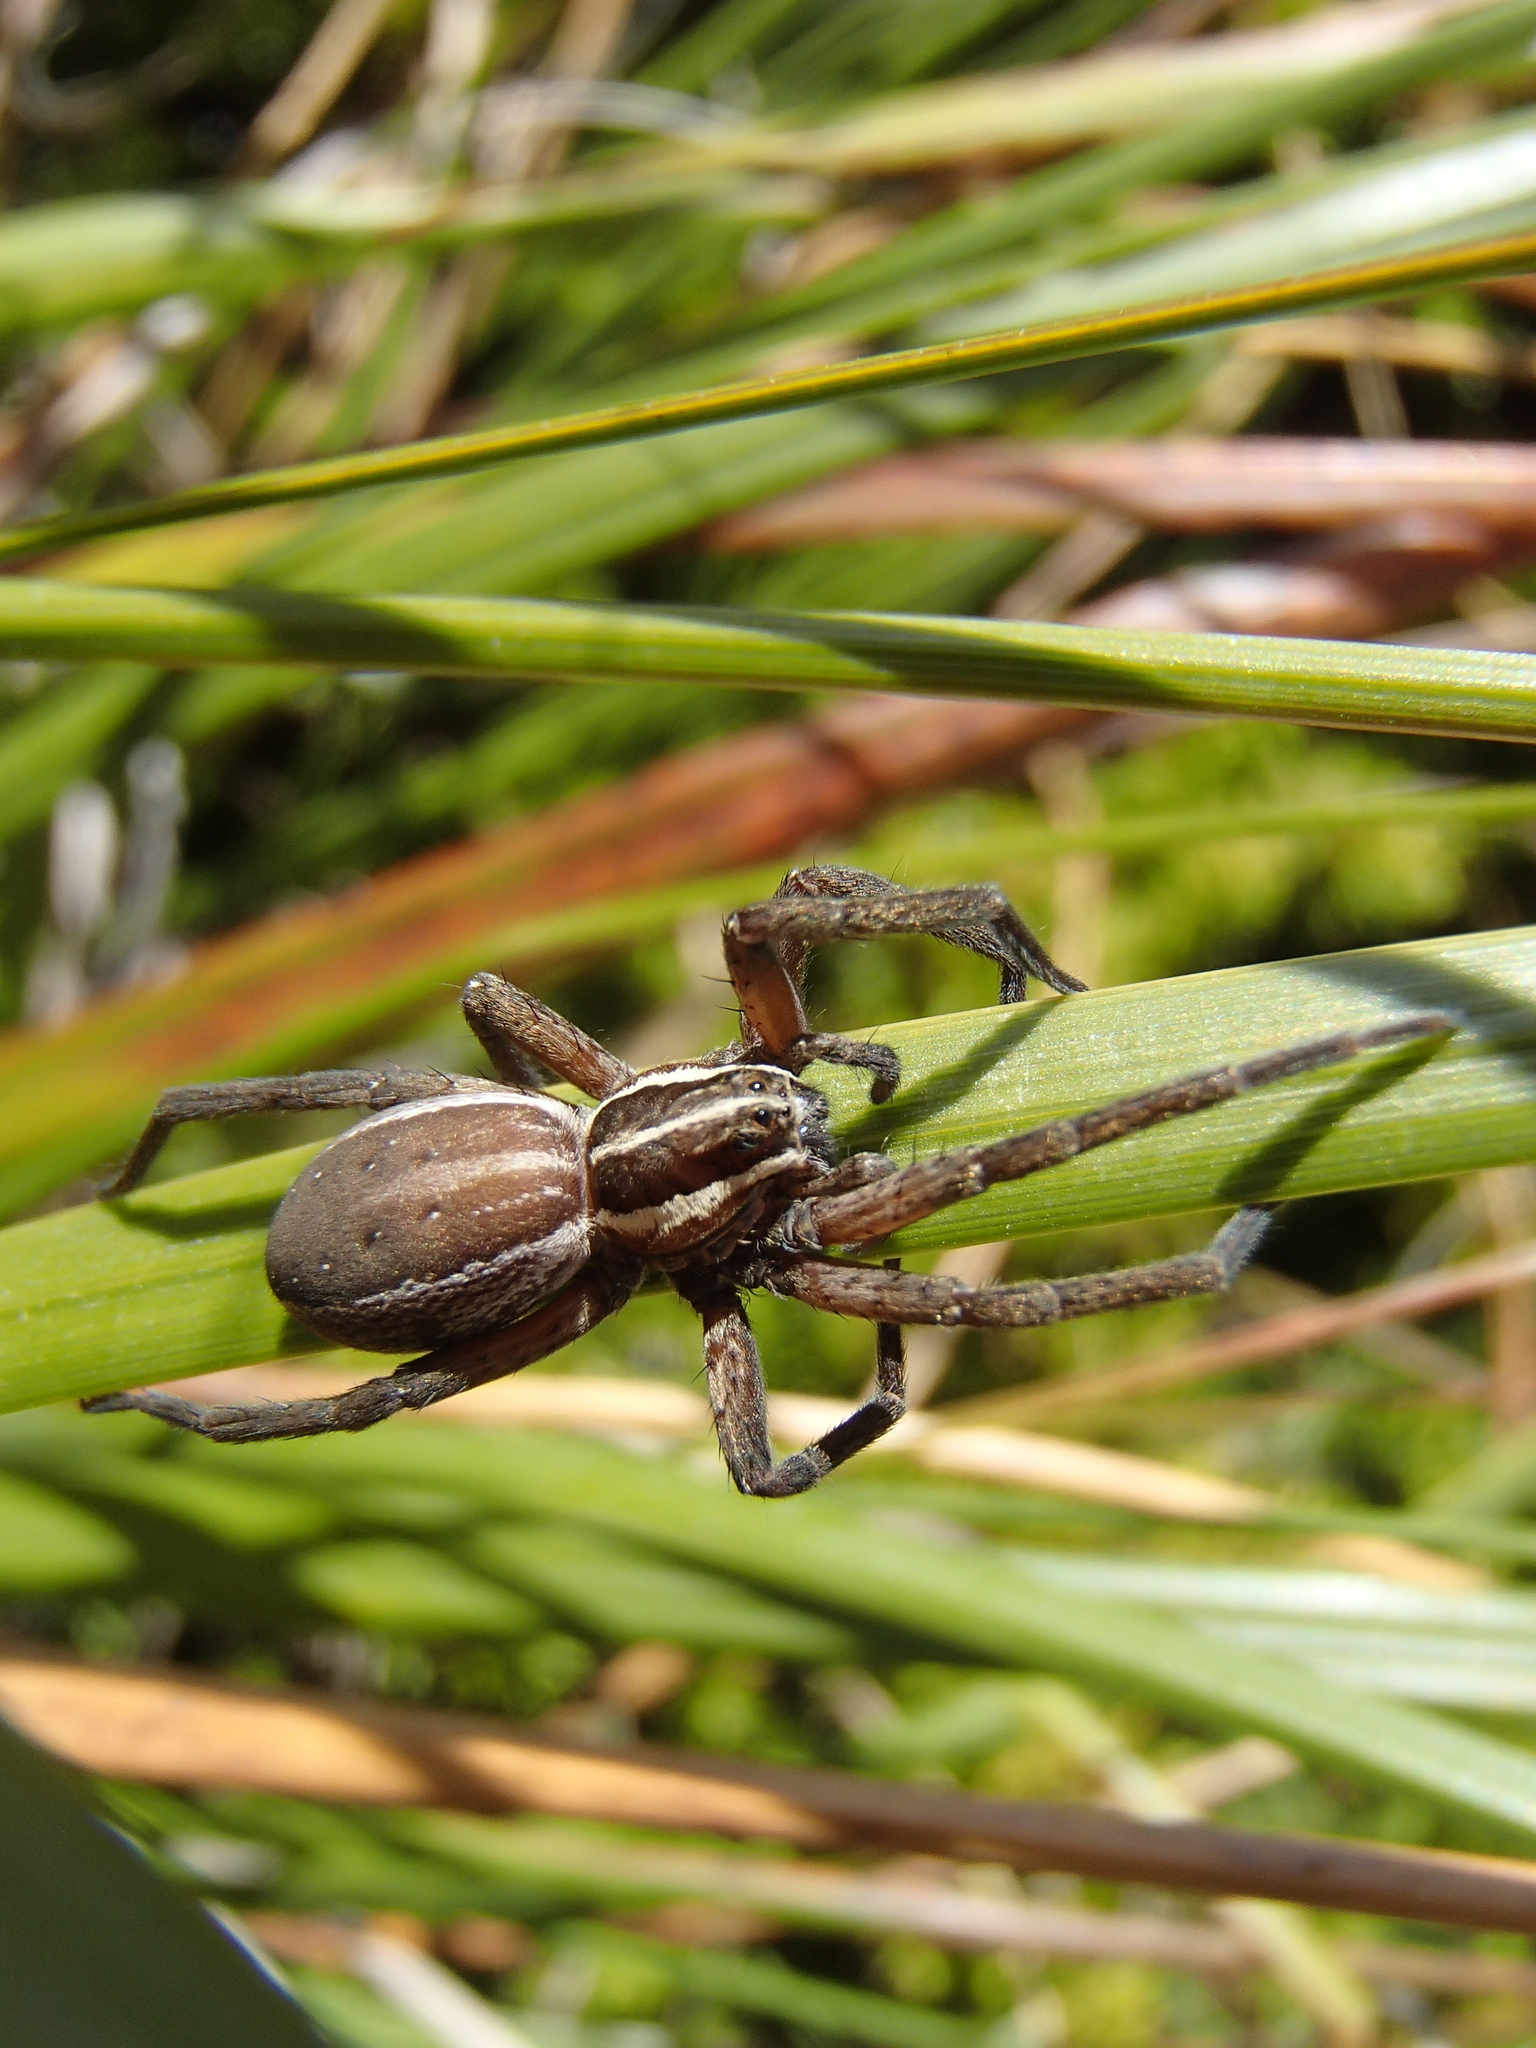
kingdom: Animalia
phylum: Arthropoda
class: Arachnida
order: Araneae
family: Pisauridae
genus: Dolomedes
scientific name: Dolomedes minor
